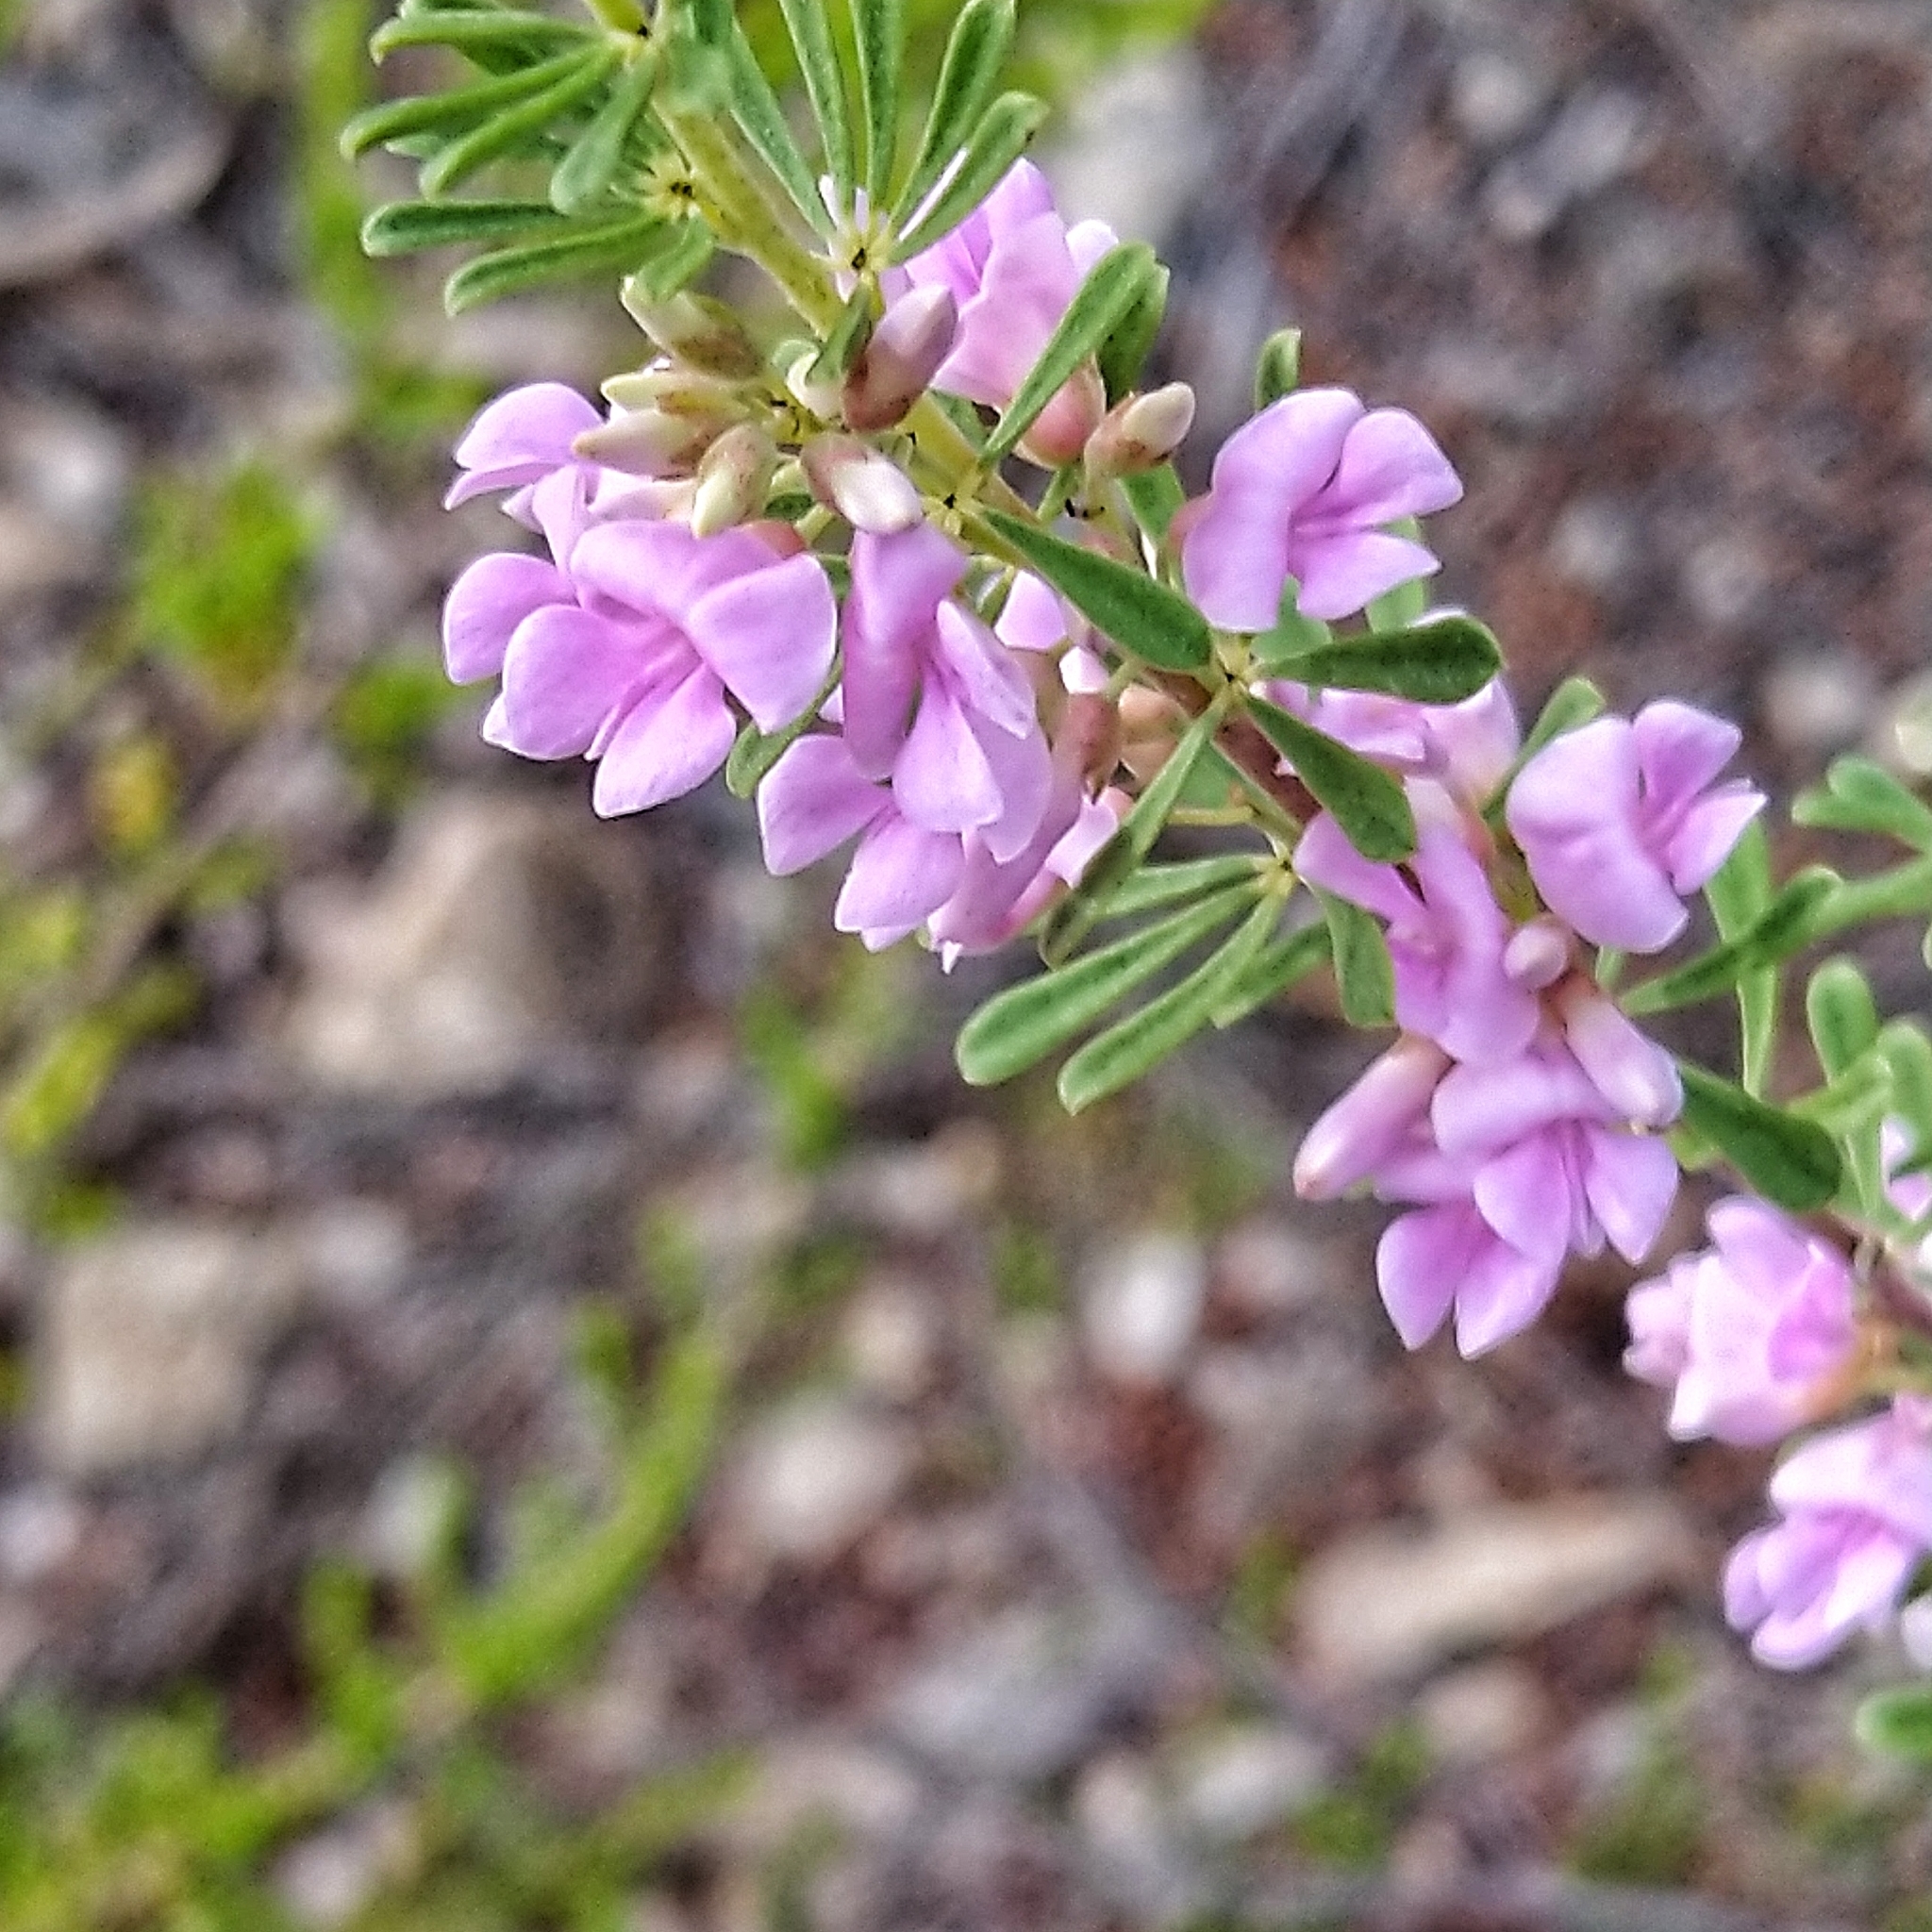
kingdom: Plantae
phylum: Tracheophyta
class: Magnoliopsida
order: Fabales
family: Fabaceae
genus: Indigofera
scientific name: Indigofera flabellata
